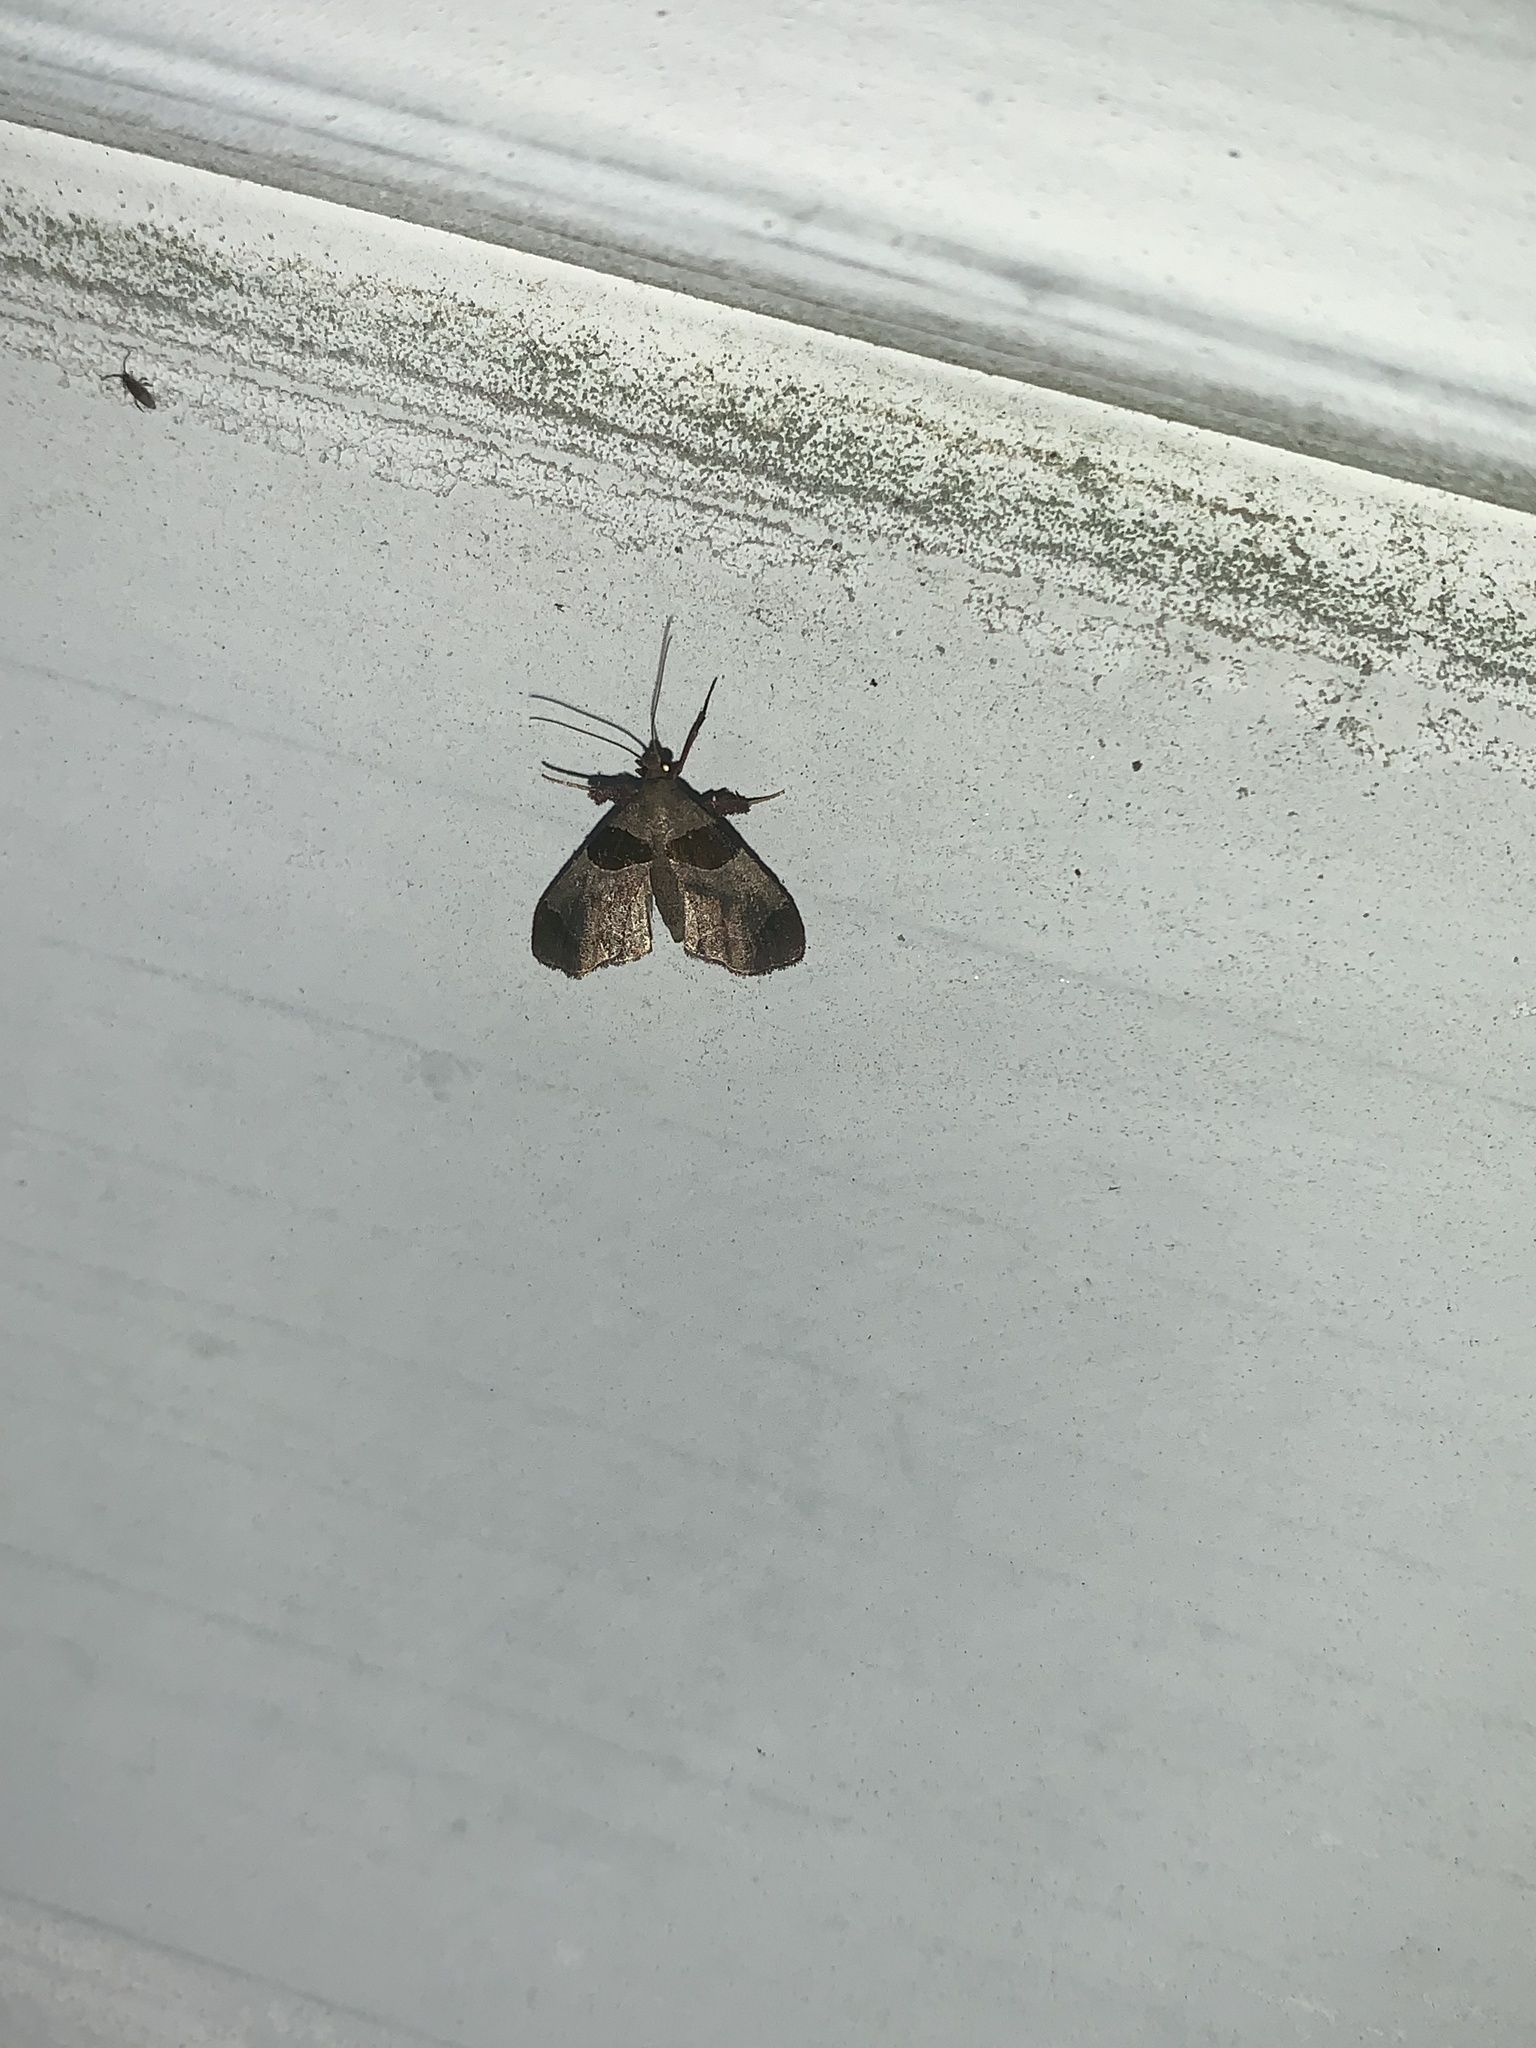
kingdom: Animalia
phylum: Arthropoda
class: Insecta
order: Lepidoptera
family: Pyralidae
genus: Tosale
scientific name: Tosale oviplagalis
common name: Dimorphic tosale moth
